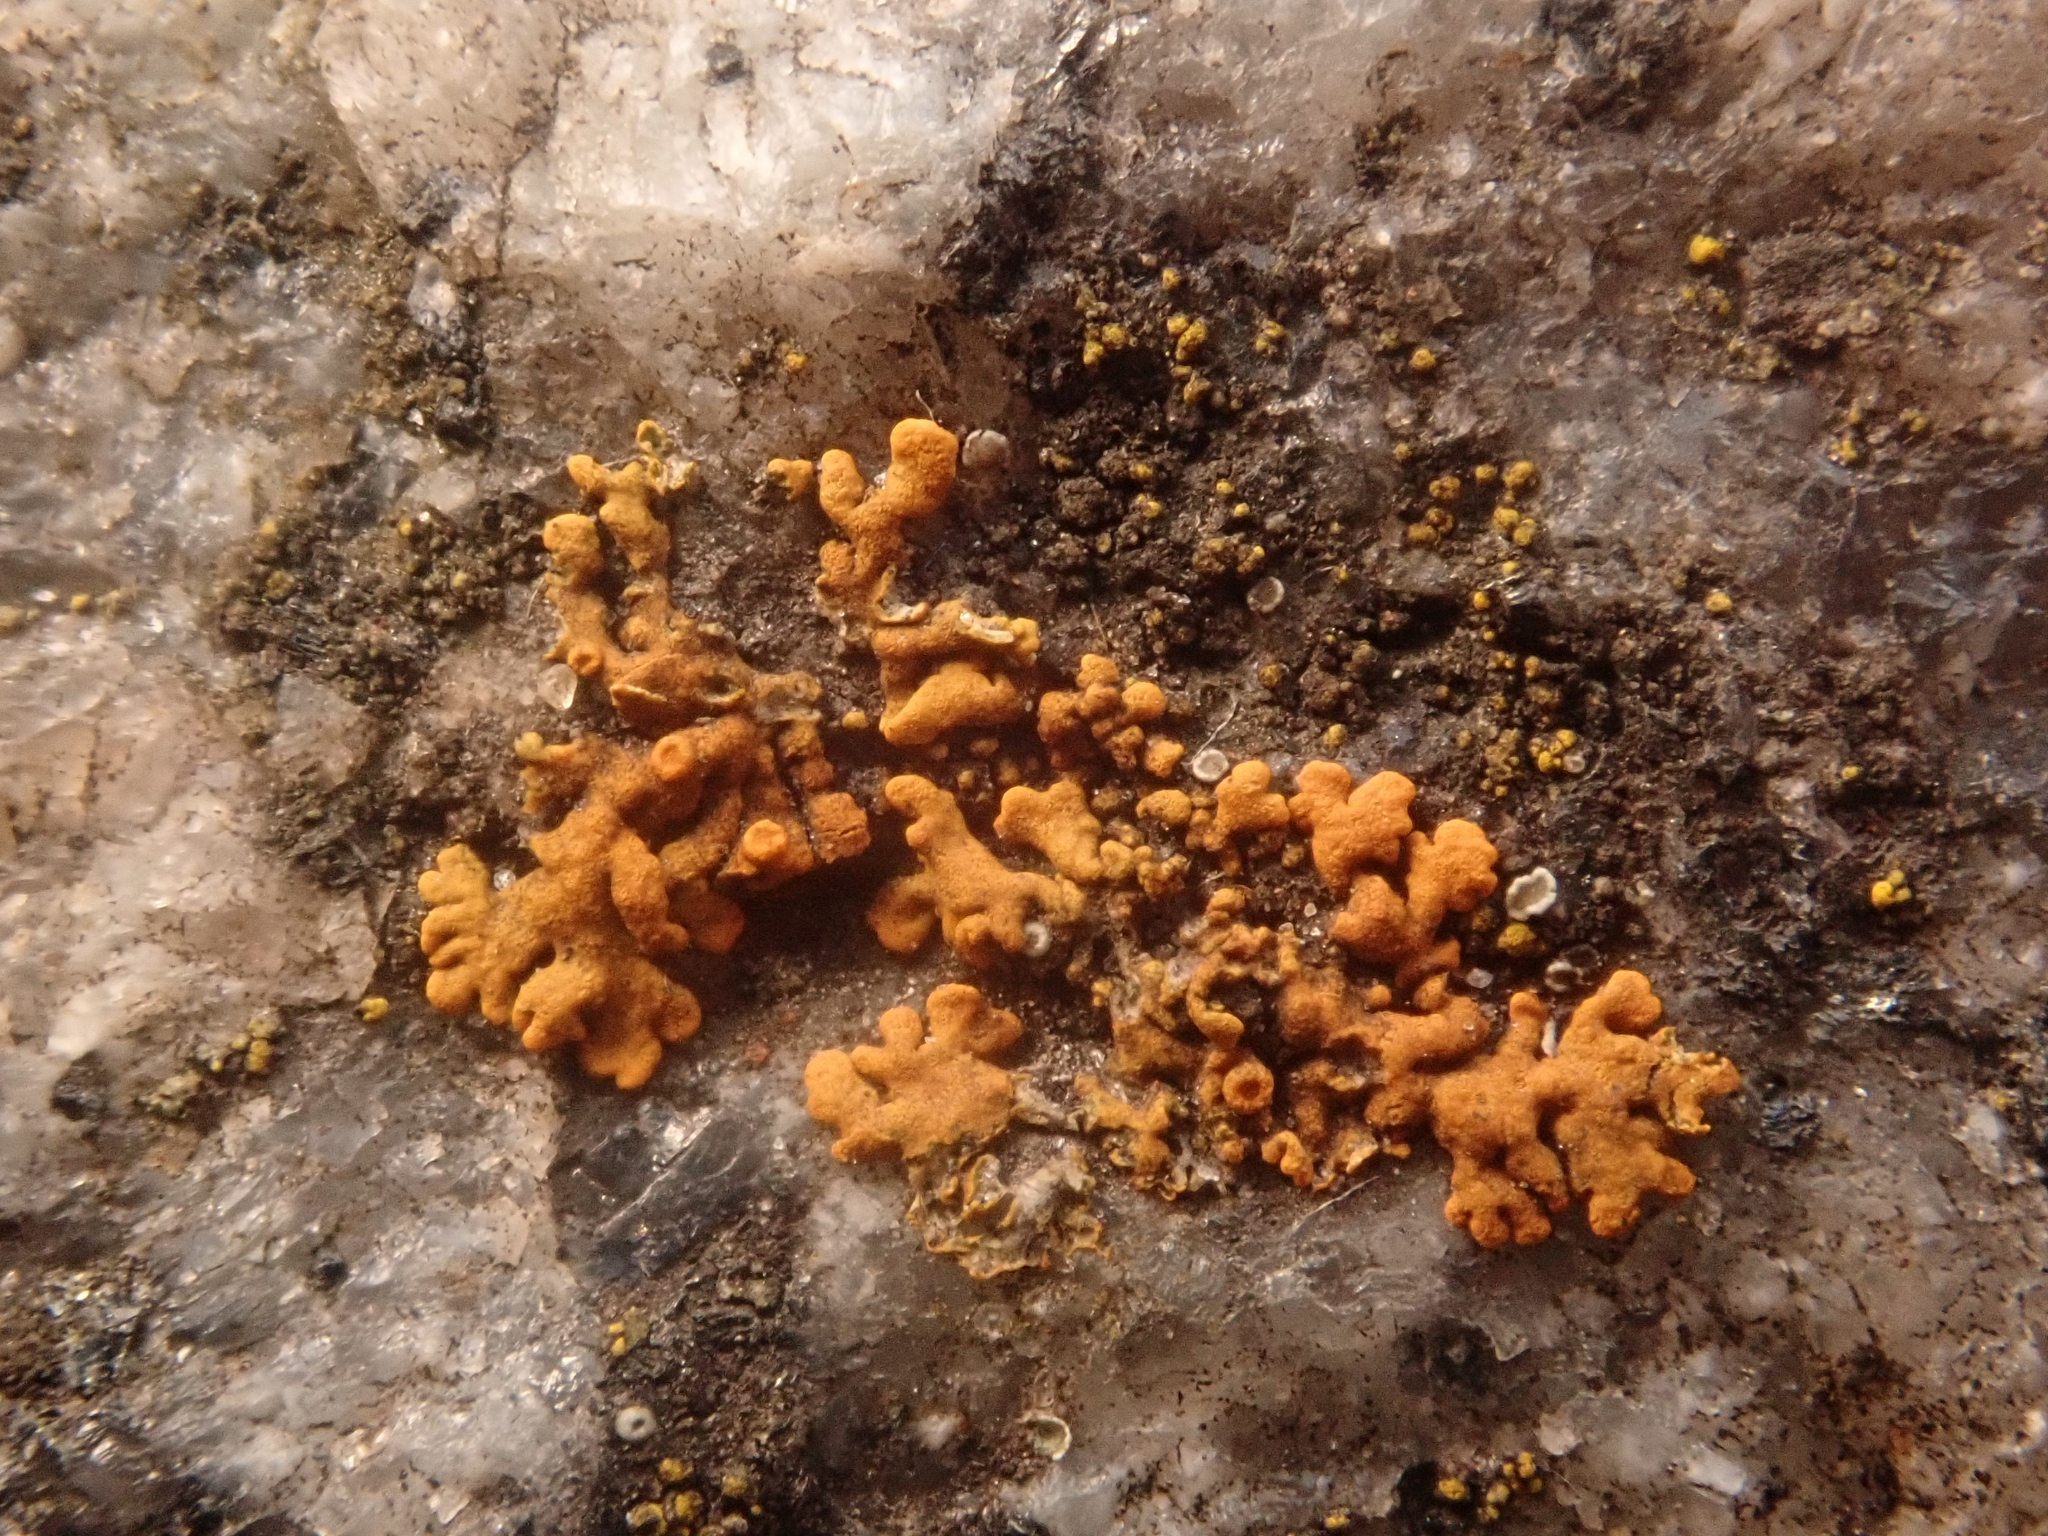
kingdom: Fungi
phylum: Ascomycota
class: Lecanoromycetes
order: Teloschistales
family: Teloschistaceae
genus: Xanthoria
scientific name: Xanthoria elegans
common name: Elegant sunburst lichen
